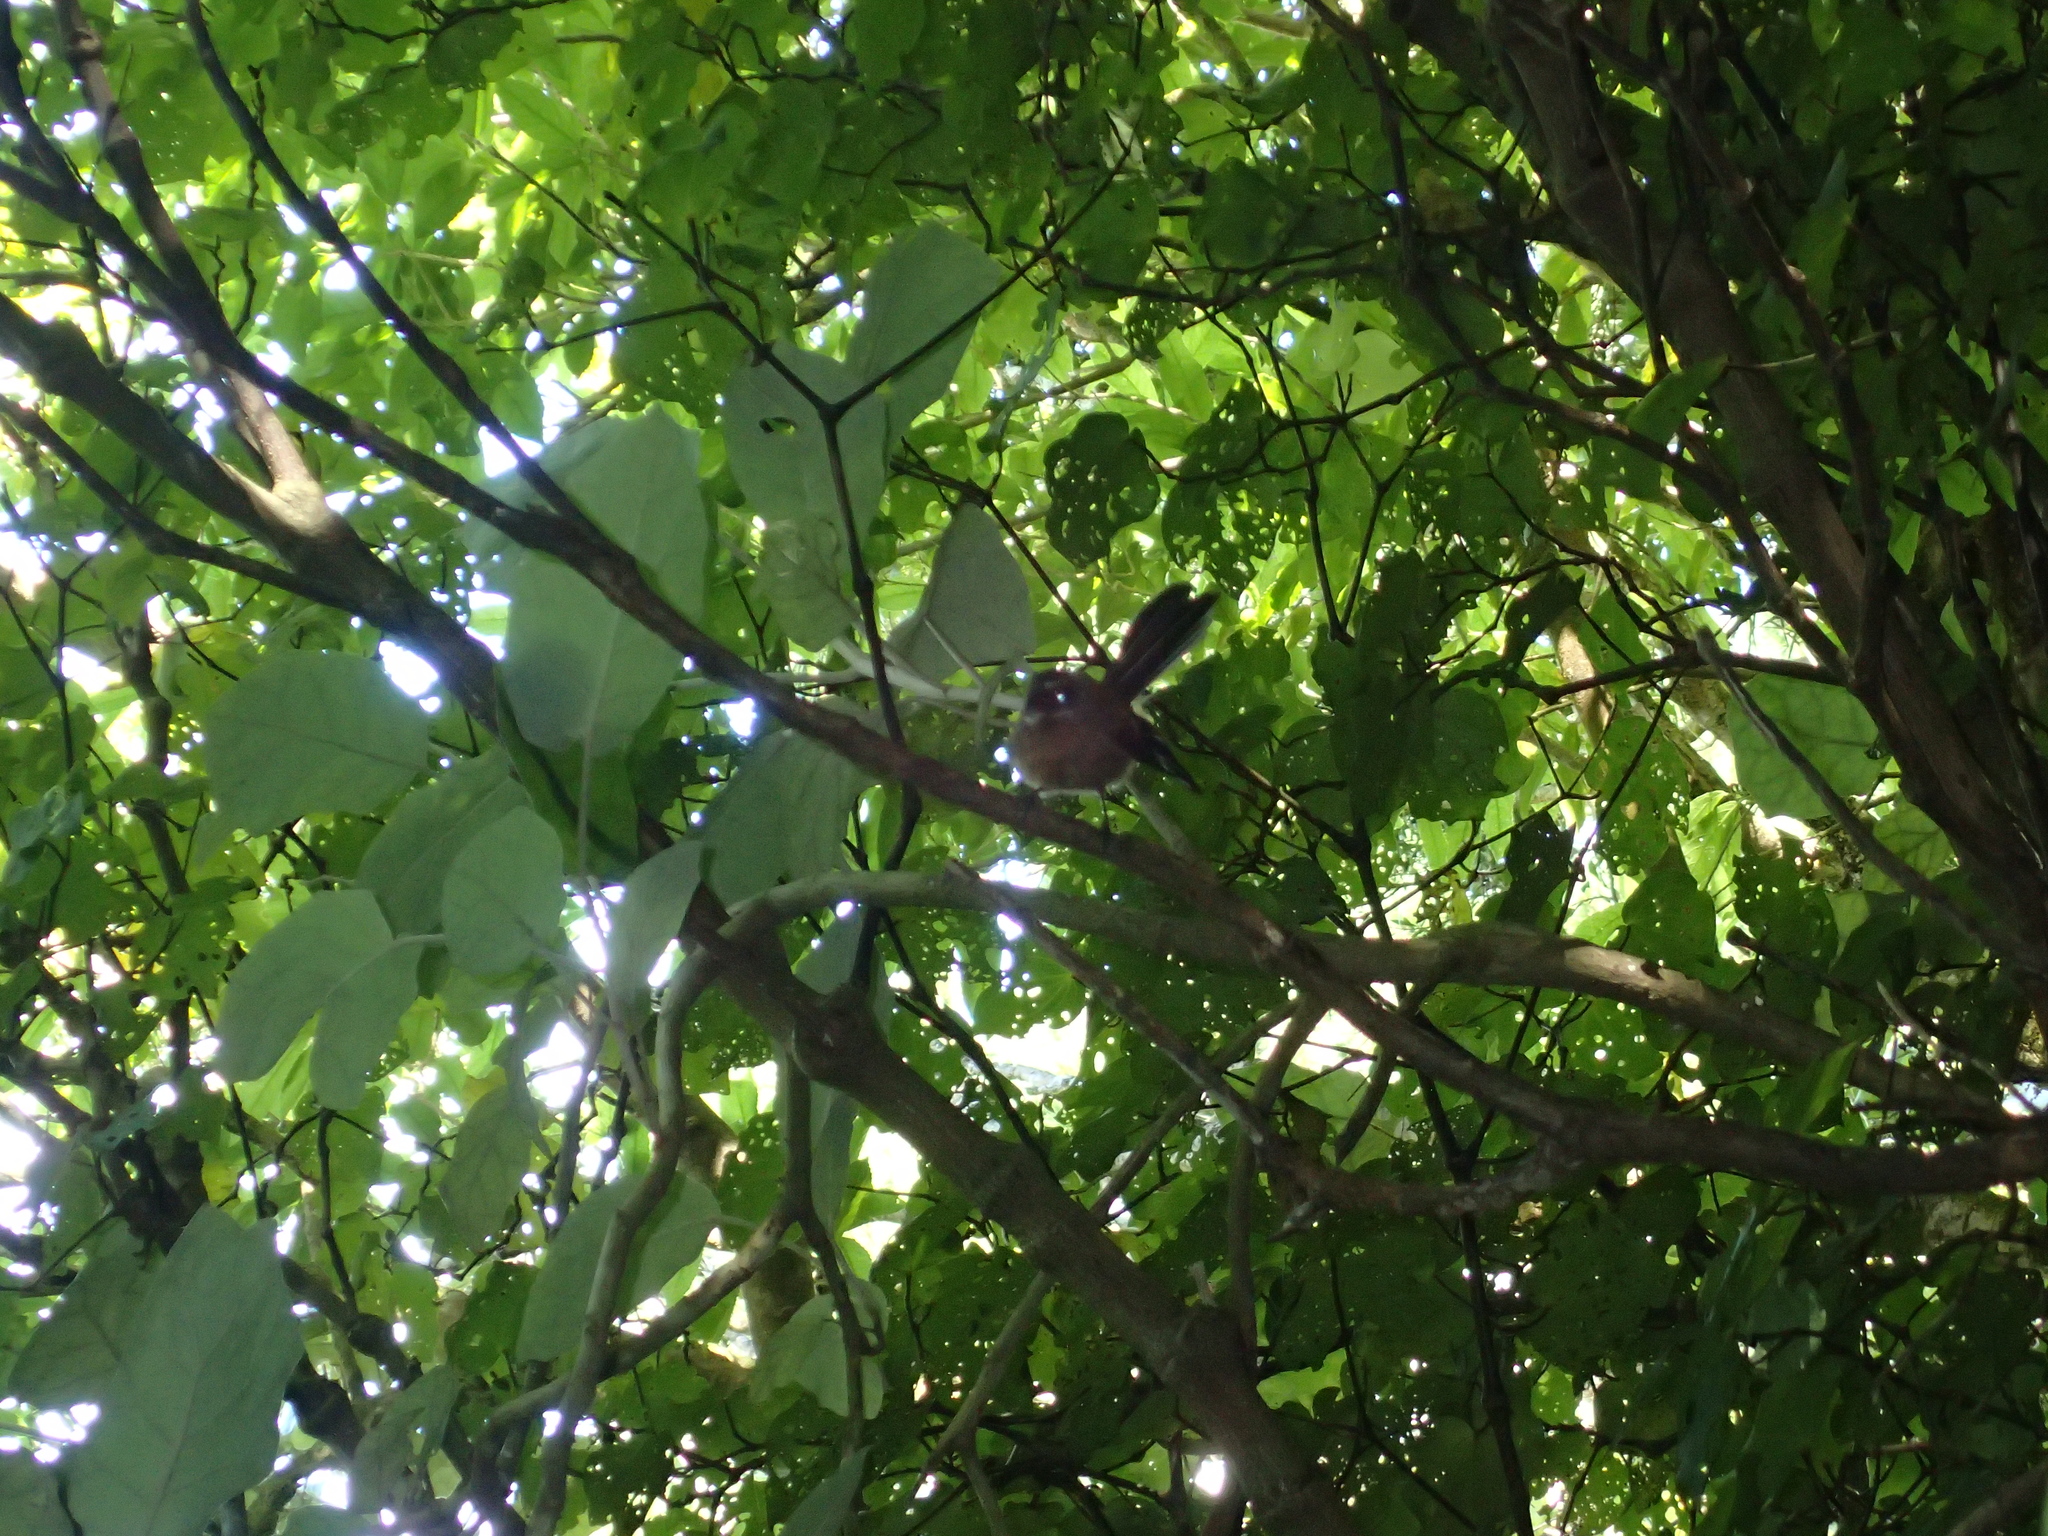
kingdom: Animalia
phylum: Chordata
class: Aves
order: Passeriformes
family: Rhipiduridae
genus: Rhipidura
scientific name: Rhipidura fuliginosa
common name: New zealand fantail
